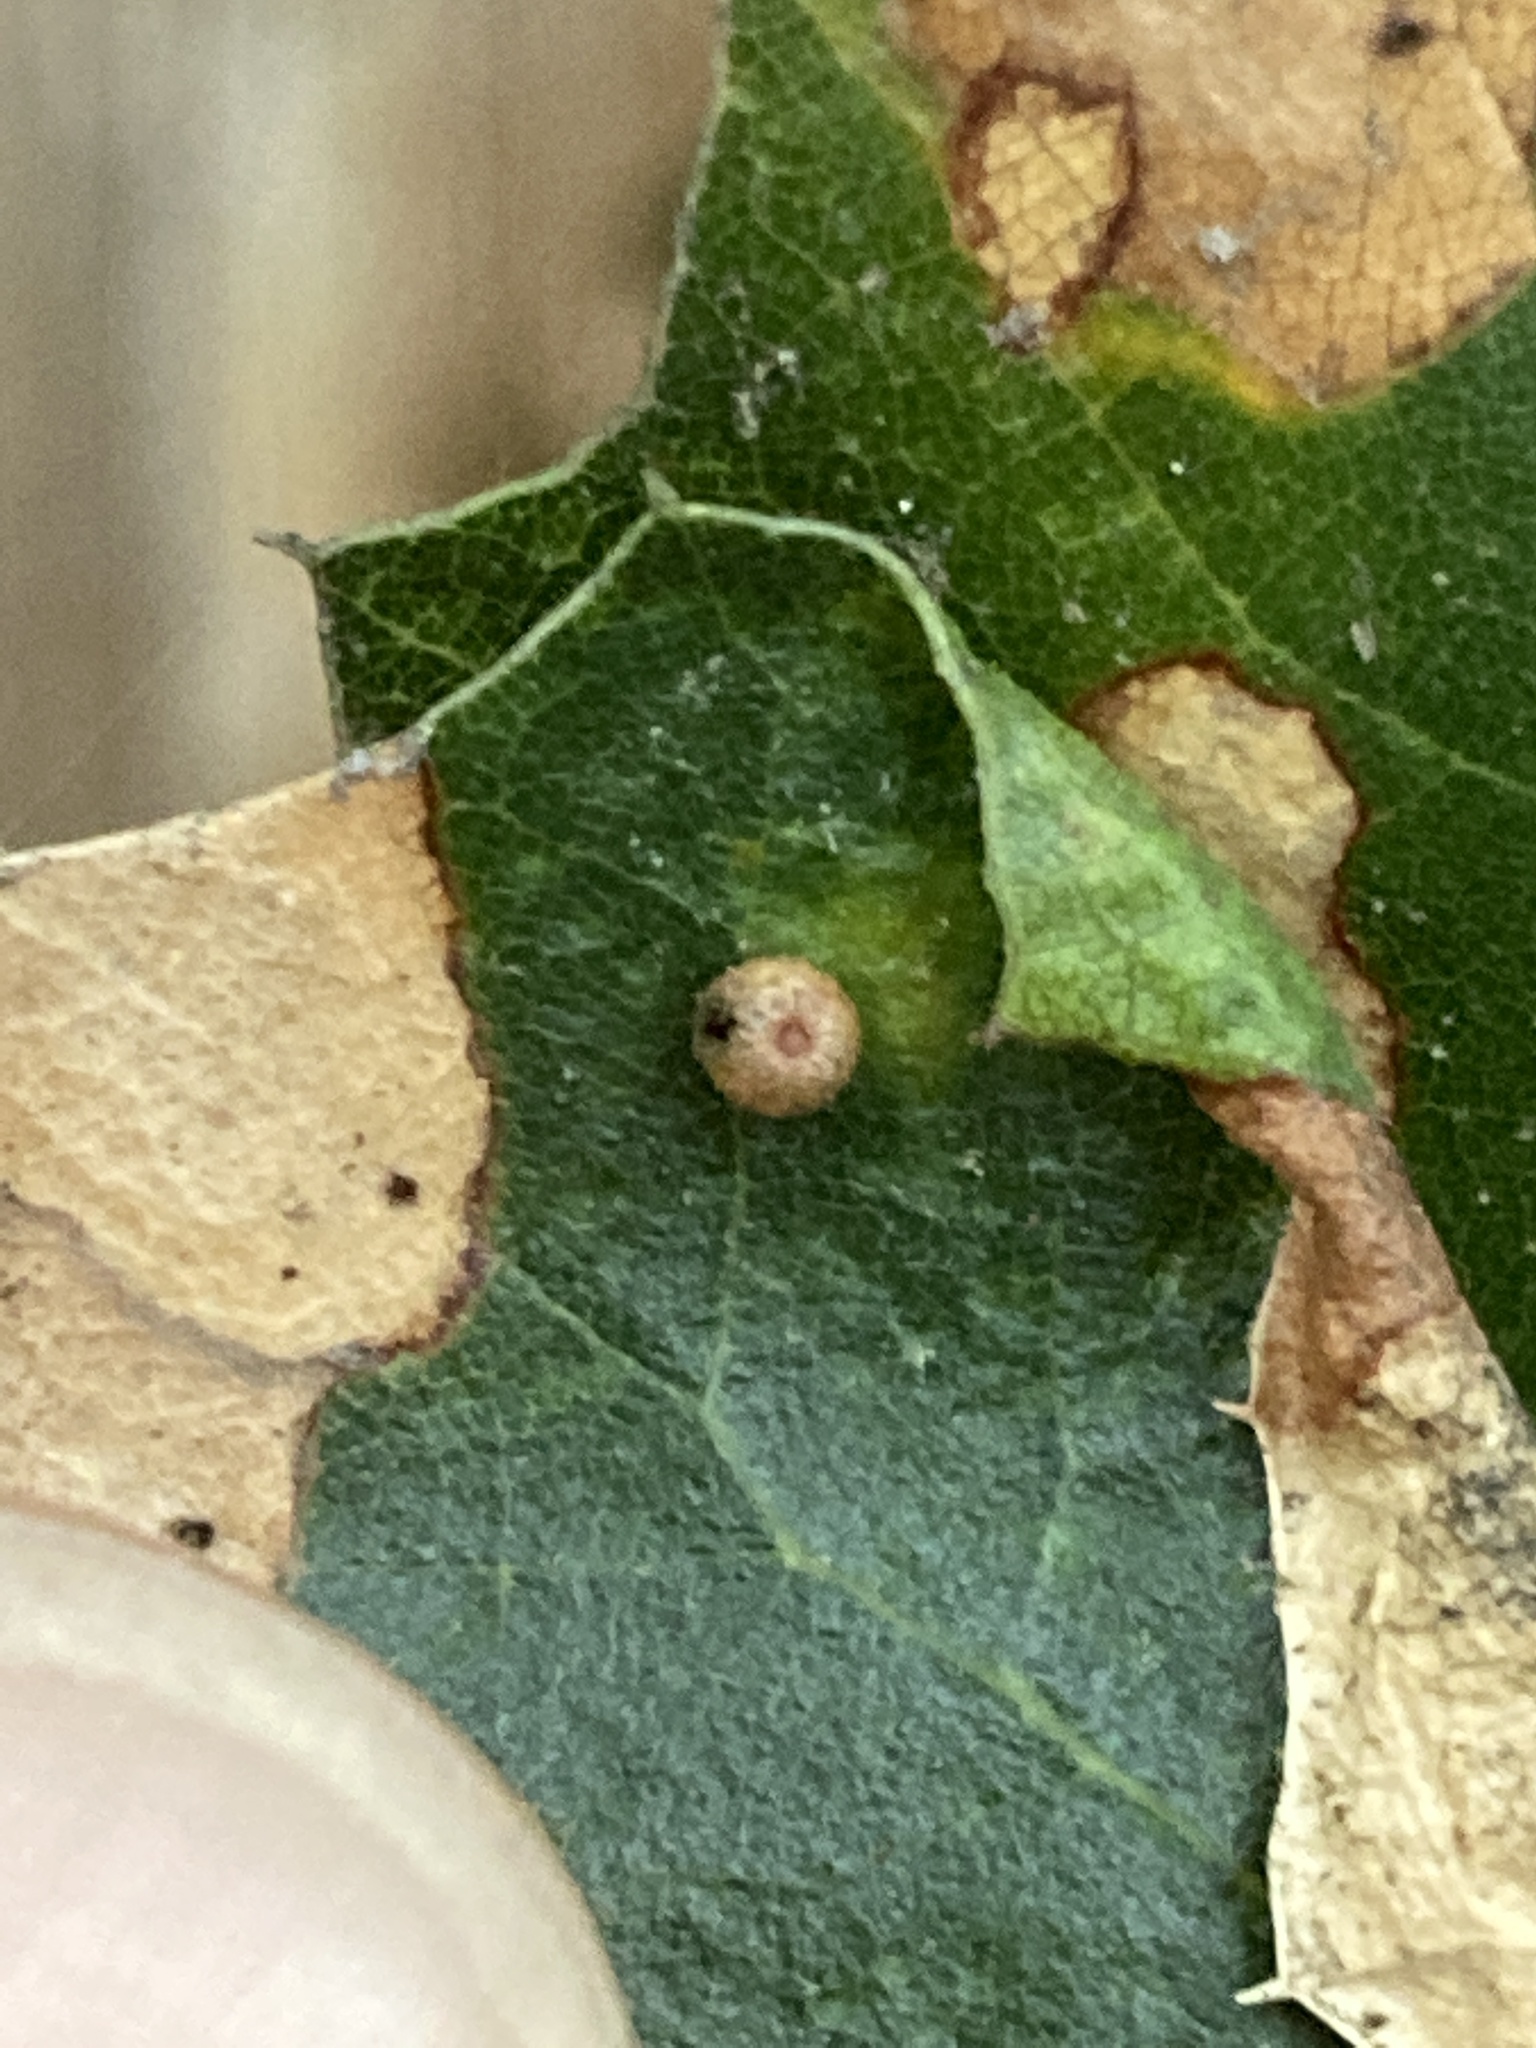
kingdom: Animalia
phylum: Arthropoda
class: Insecta
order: Hymenoptera
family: Cynipidae
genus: Dryocosmus
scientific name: Dryocosmus
